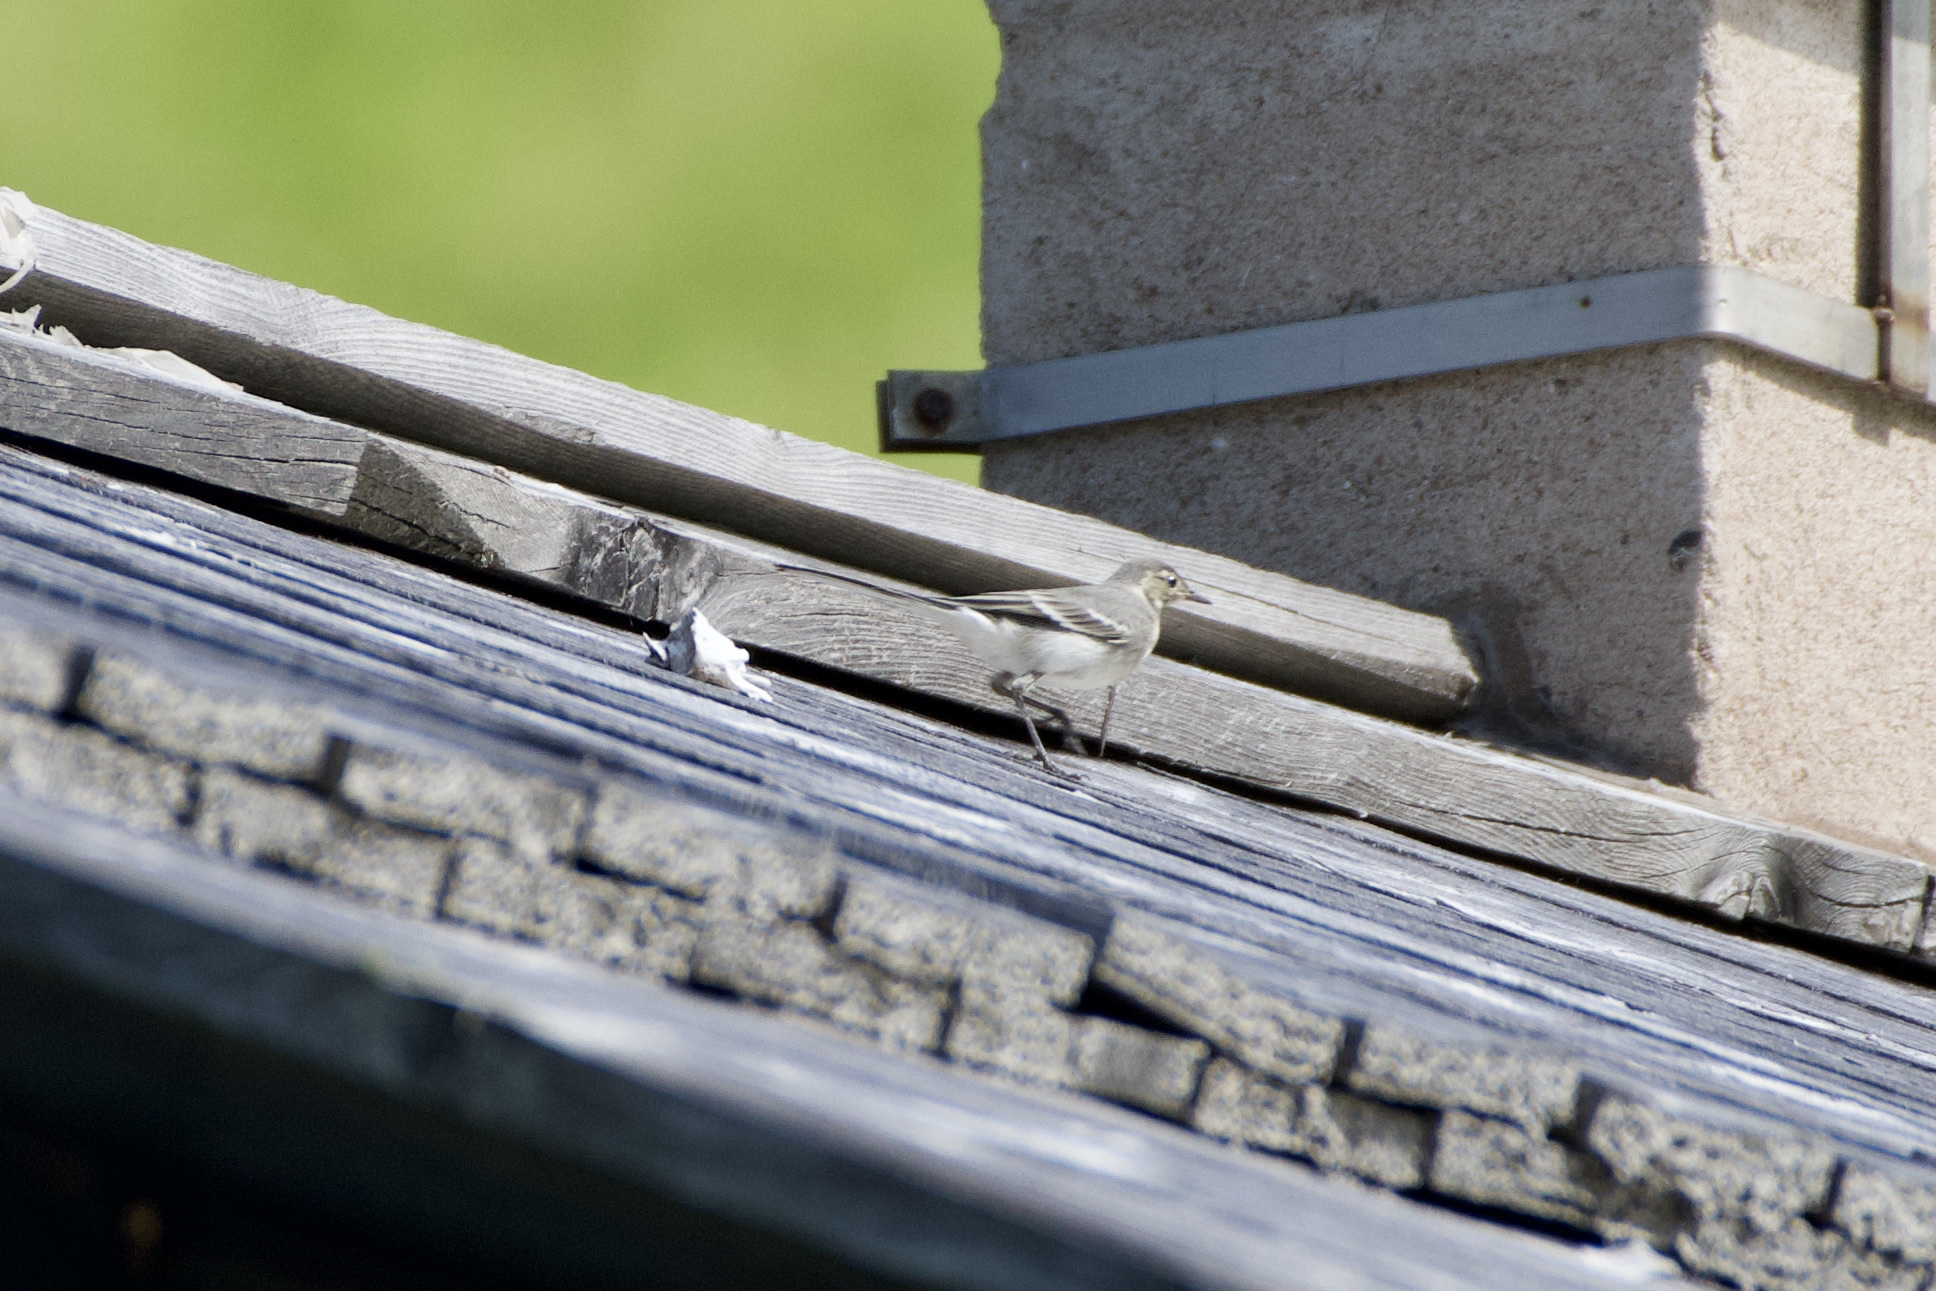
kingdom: Animalia
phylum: Chordata
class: Aves
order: Passeriformes
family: Motacillidae
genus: Motacilla
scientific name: Motacilla alba
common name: White wagtail
